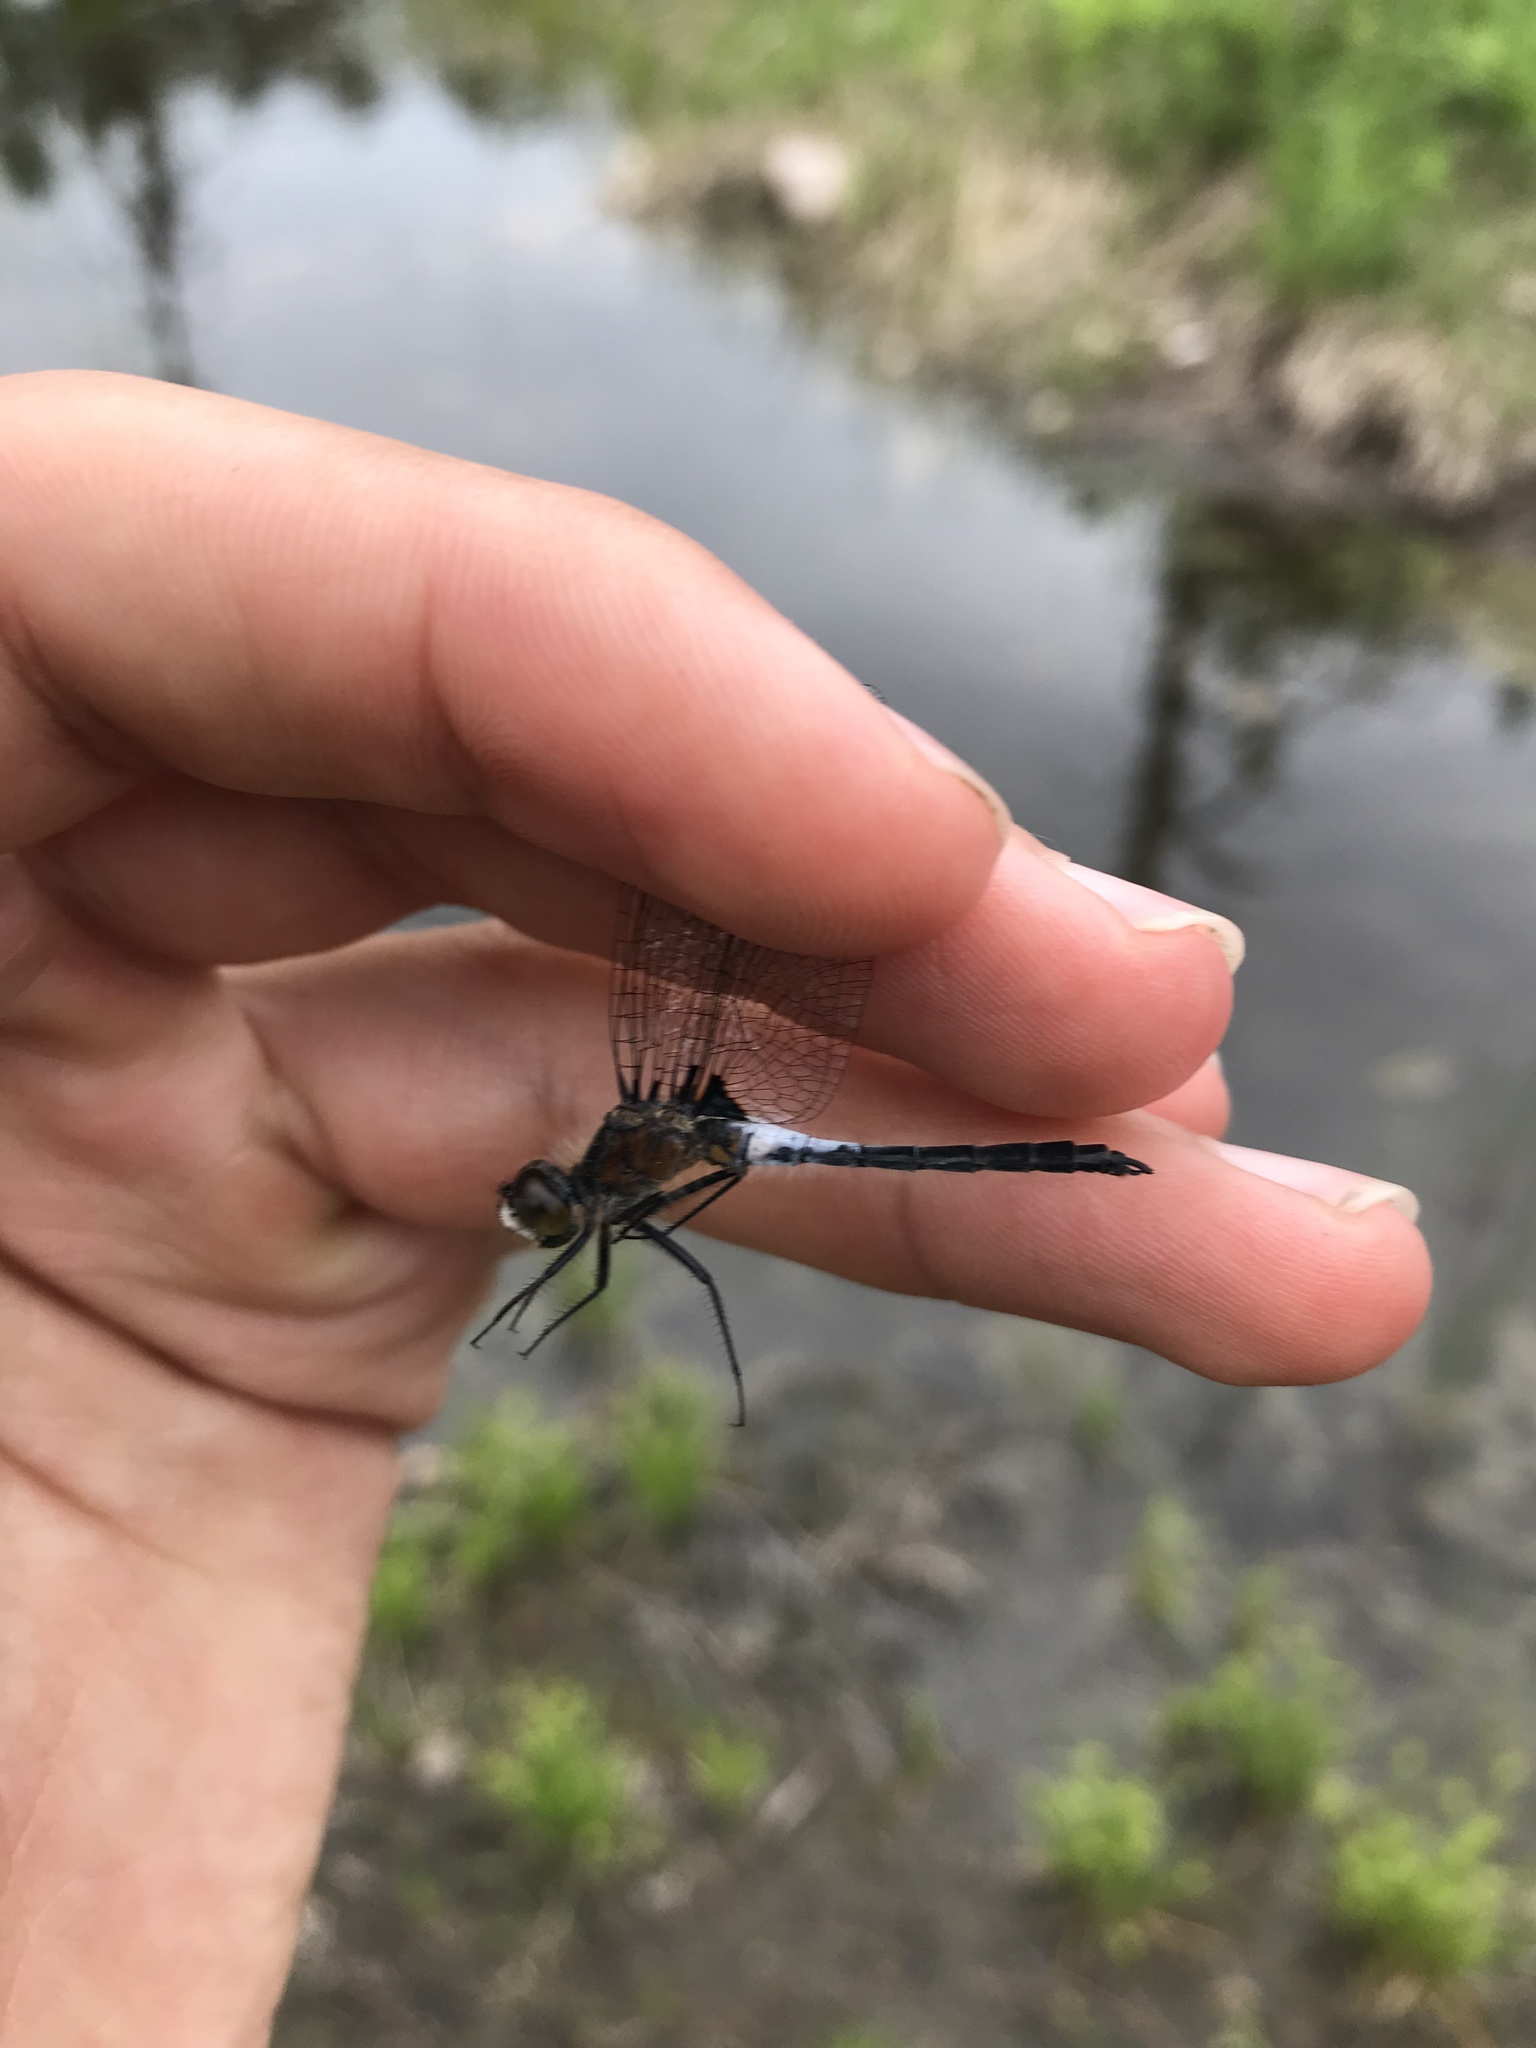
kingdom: Animalia
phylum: Arthropoda
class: Insecta
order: Odonata
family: Libellulidae
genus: Leucorrhinia
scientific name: Leucorrhinia frigida
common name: Frosted whiteface
